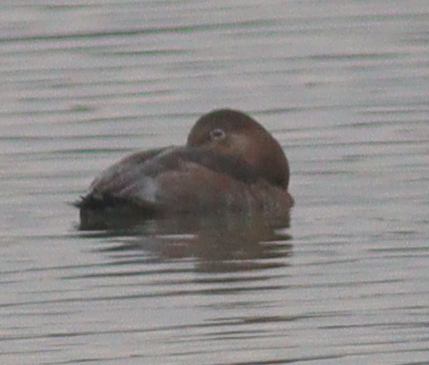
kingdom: Animalia
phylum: Chordata
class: Aves
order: Anseriformes
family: Anatidae
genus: Aythya
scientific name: Aythya ferina
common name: Common pochard
